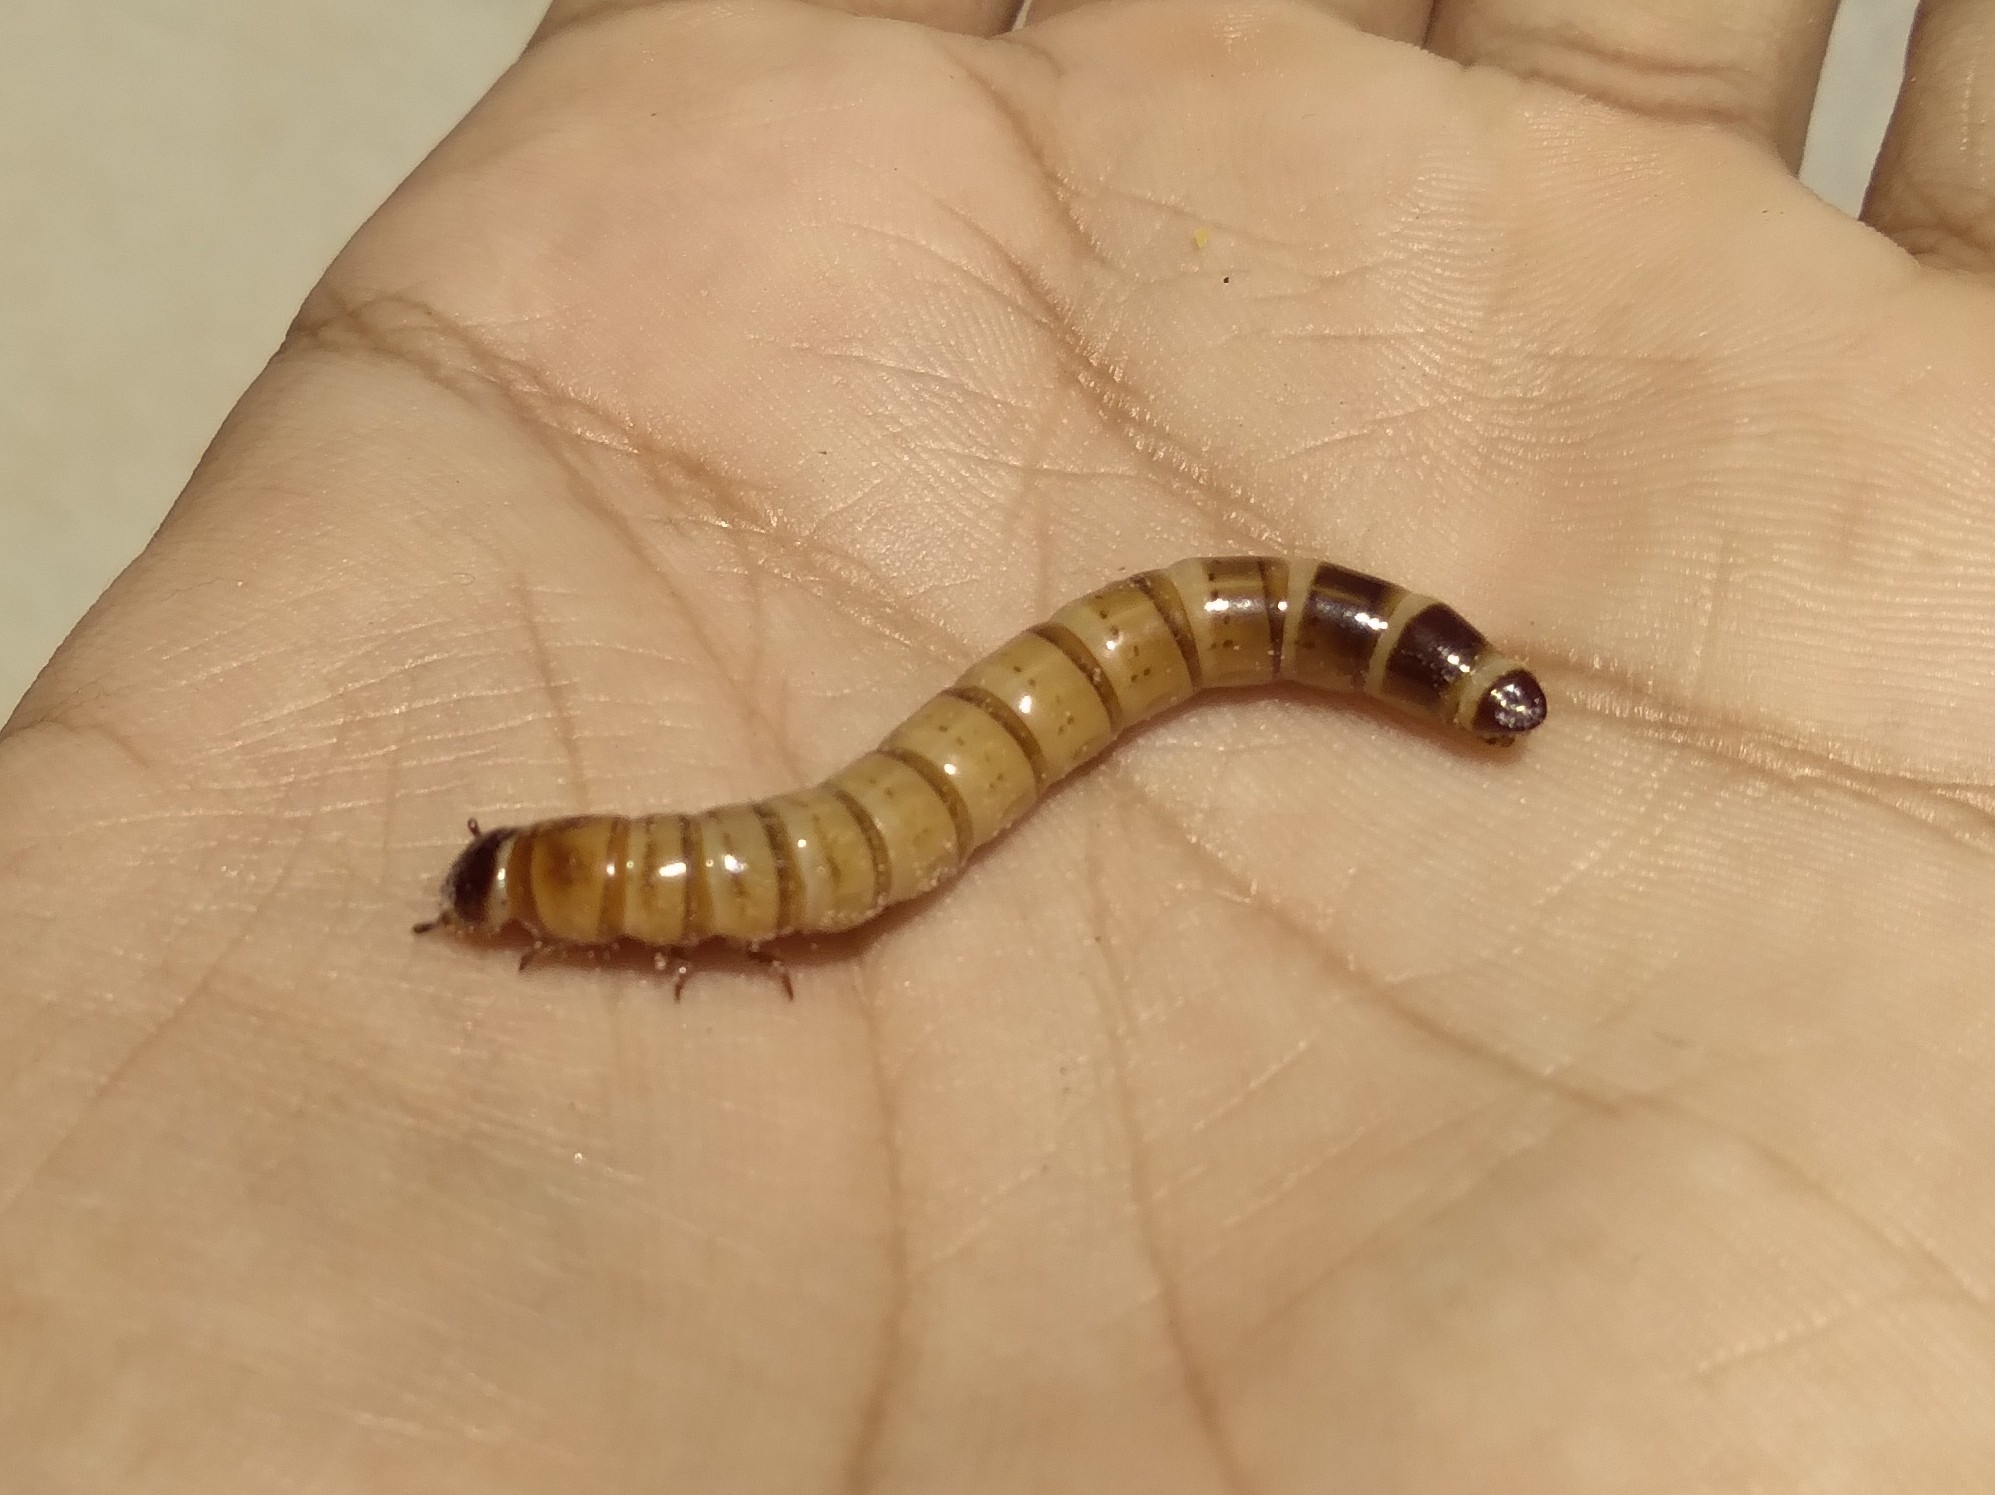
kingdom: Animalia
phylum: Arthropoda
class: Insecta
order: Coleoptera
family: Tenebrionidae
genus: Zophobas
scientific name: Zophobas atratus
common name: Darkling beetle
